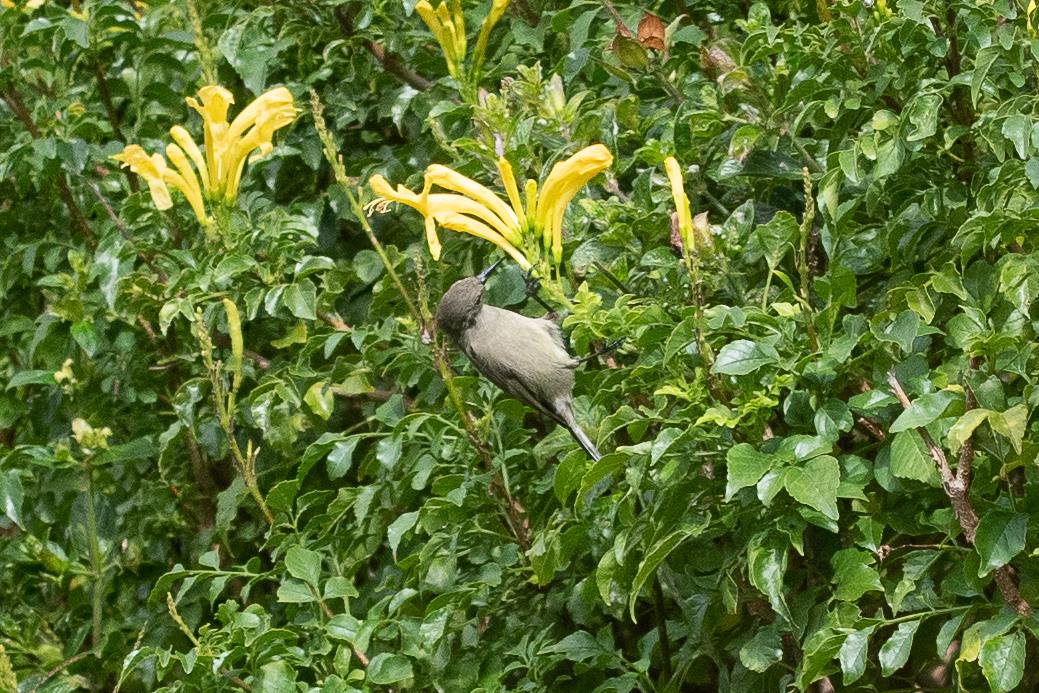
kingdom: Animalia
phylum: Chordata
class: Aves
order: Passeriformes
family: Nectariniidae
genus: Cinnyris
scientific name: Cinnyris chalybeus
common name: Southern double-collared sunbird
